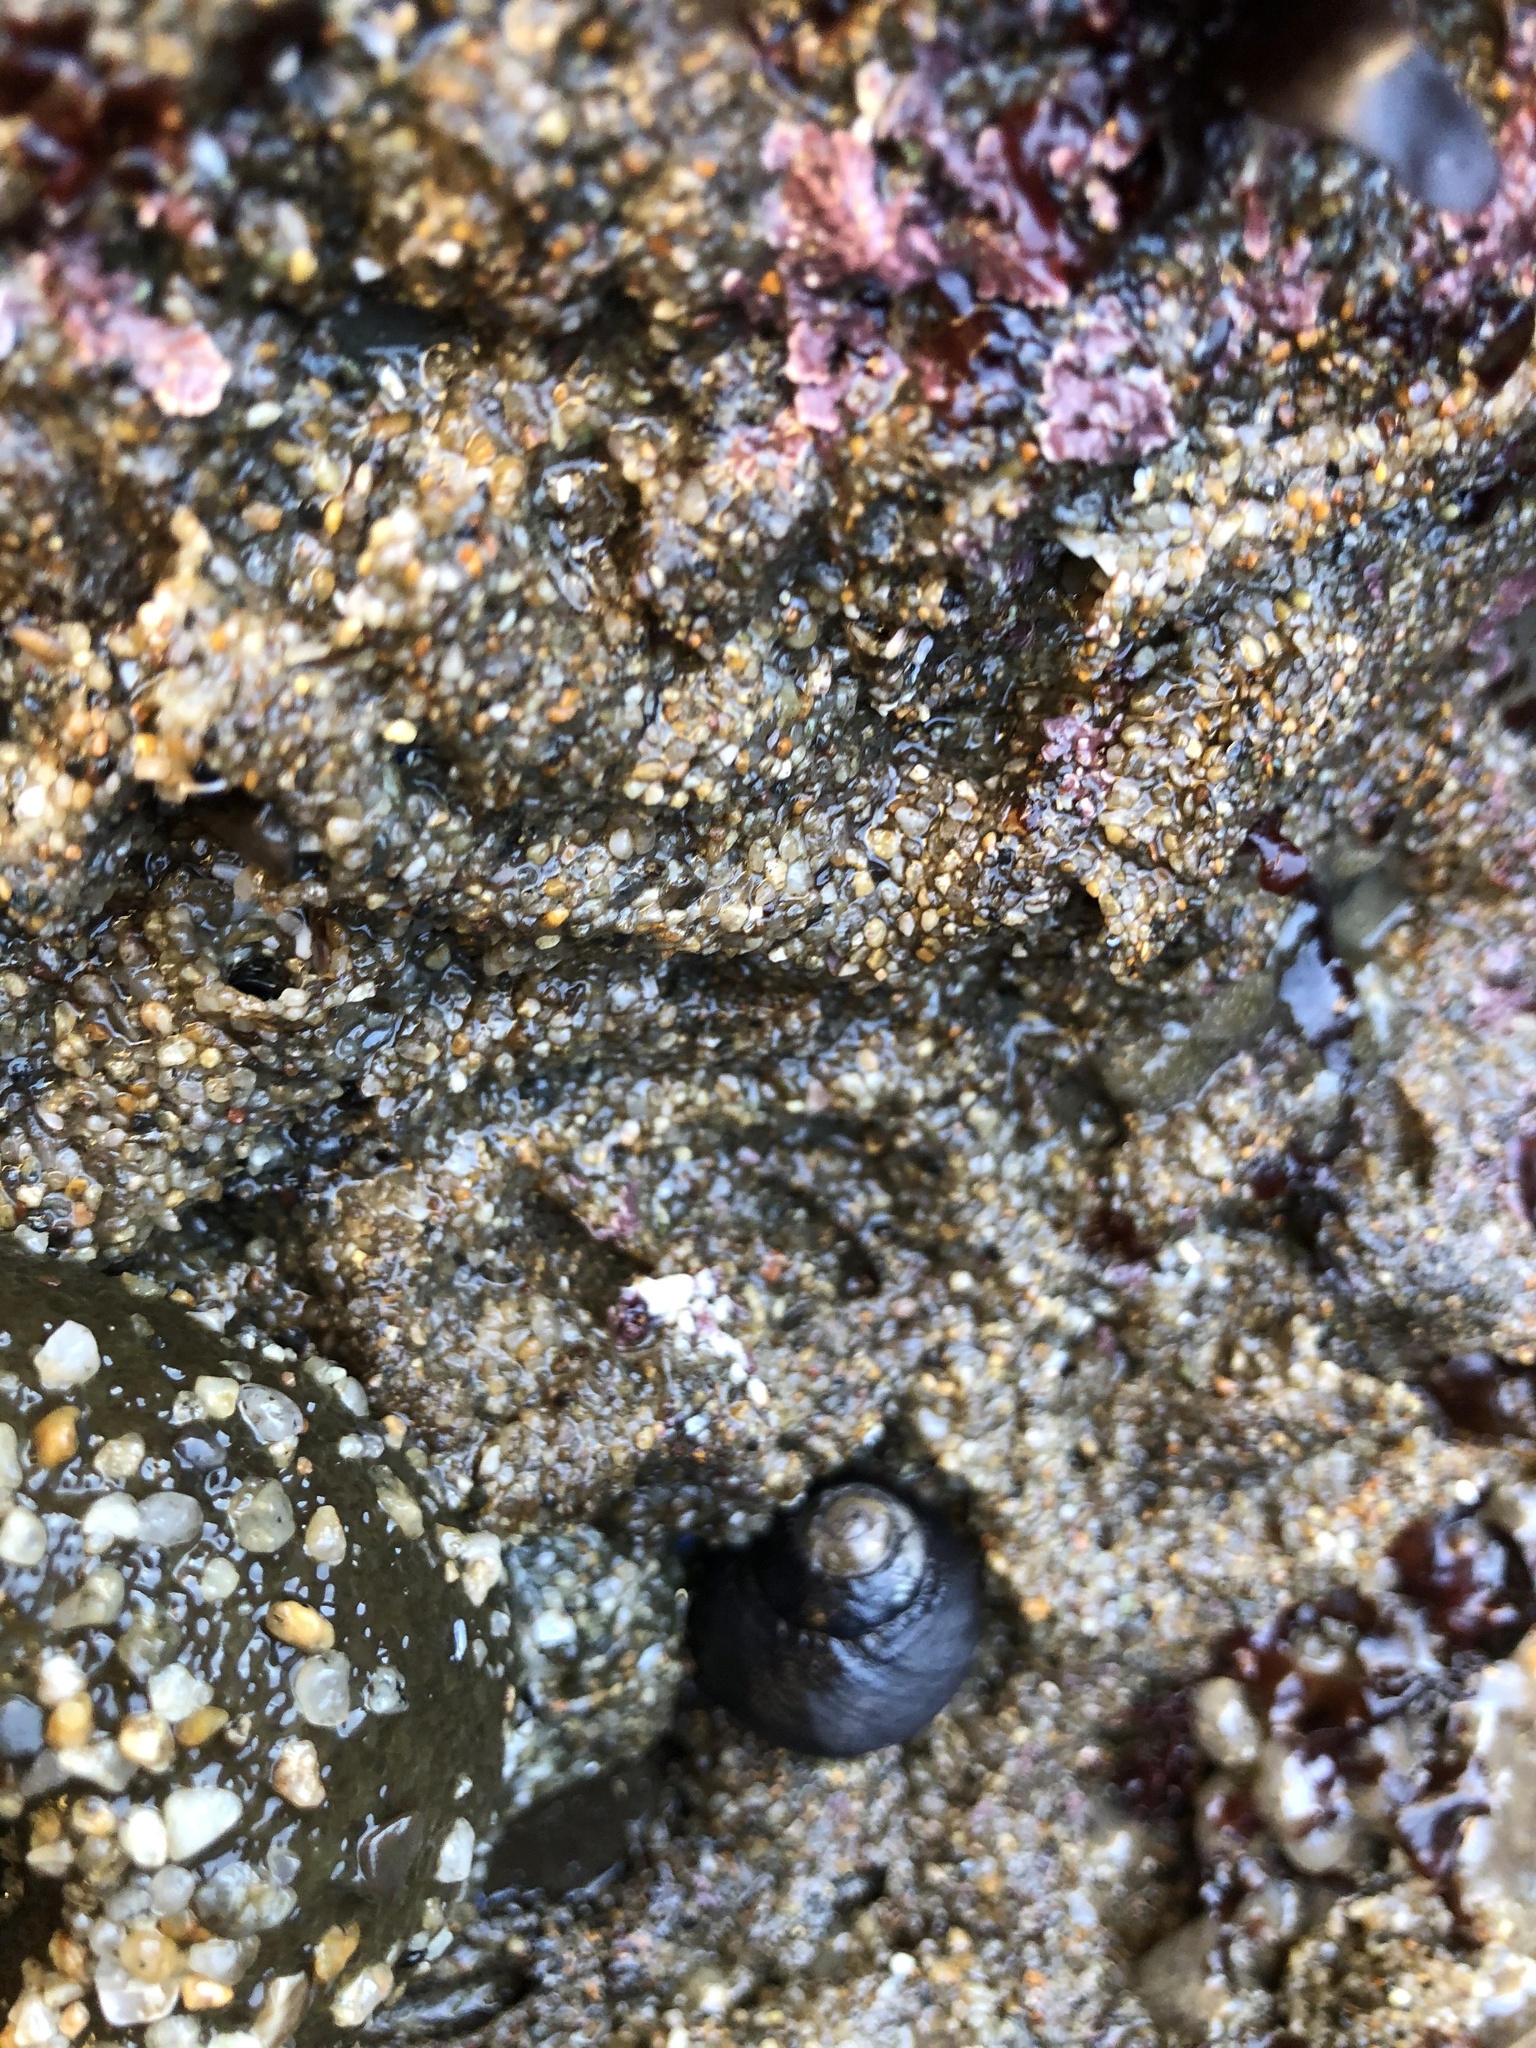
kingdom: Animalia
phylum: Annelida
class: Polychaeta
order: Sabellida
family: Sabellariidae
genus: Phragmatopoma
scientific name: Phragmatopoma californica
